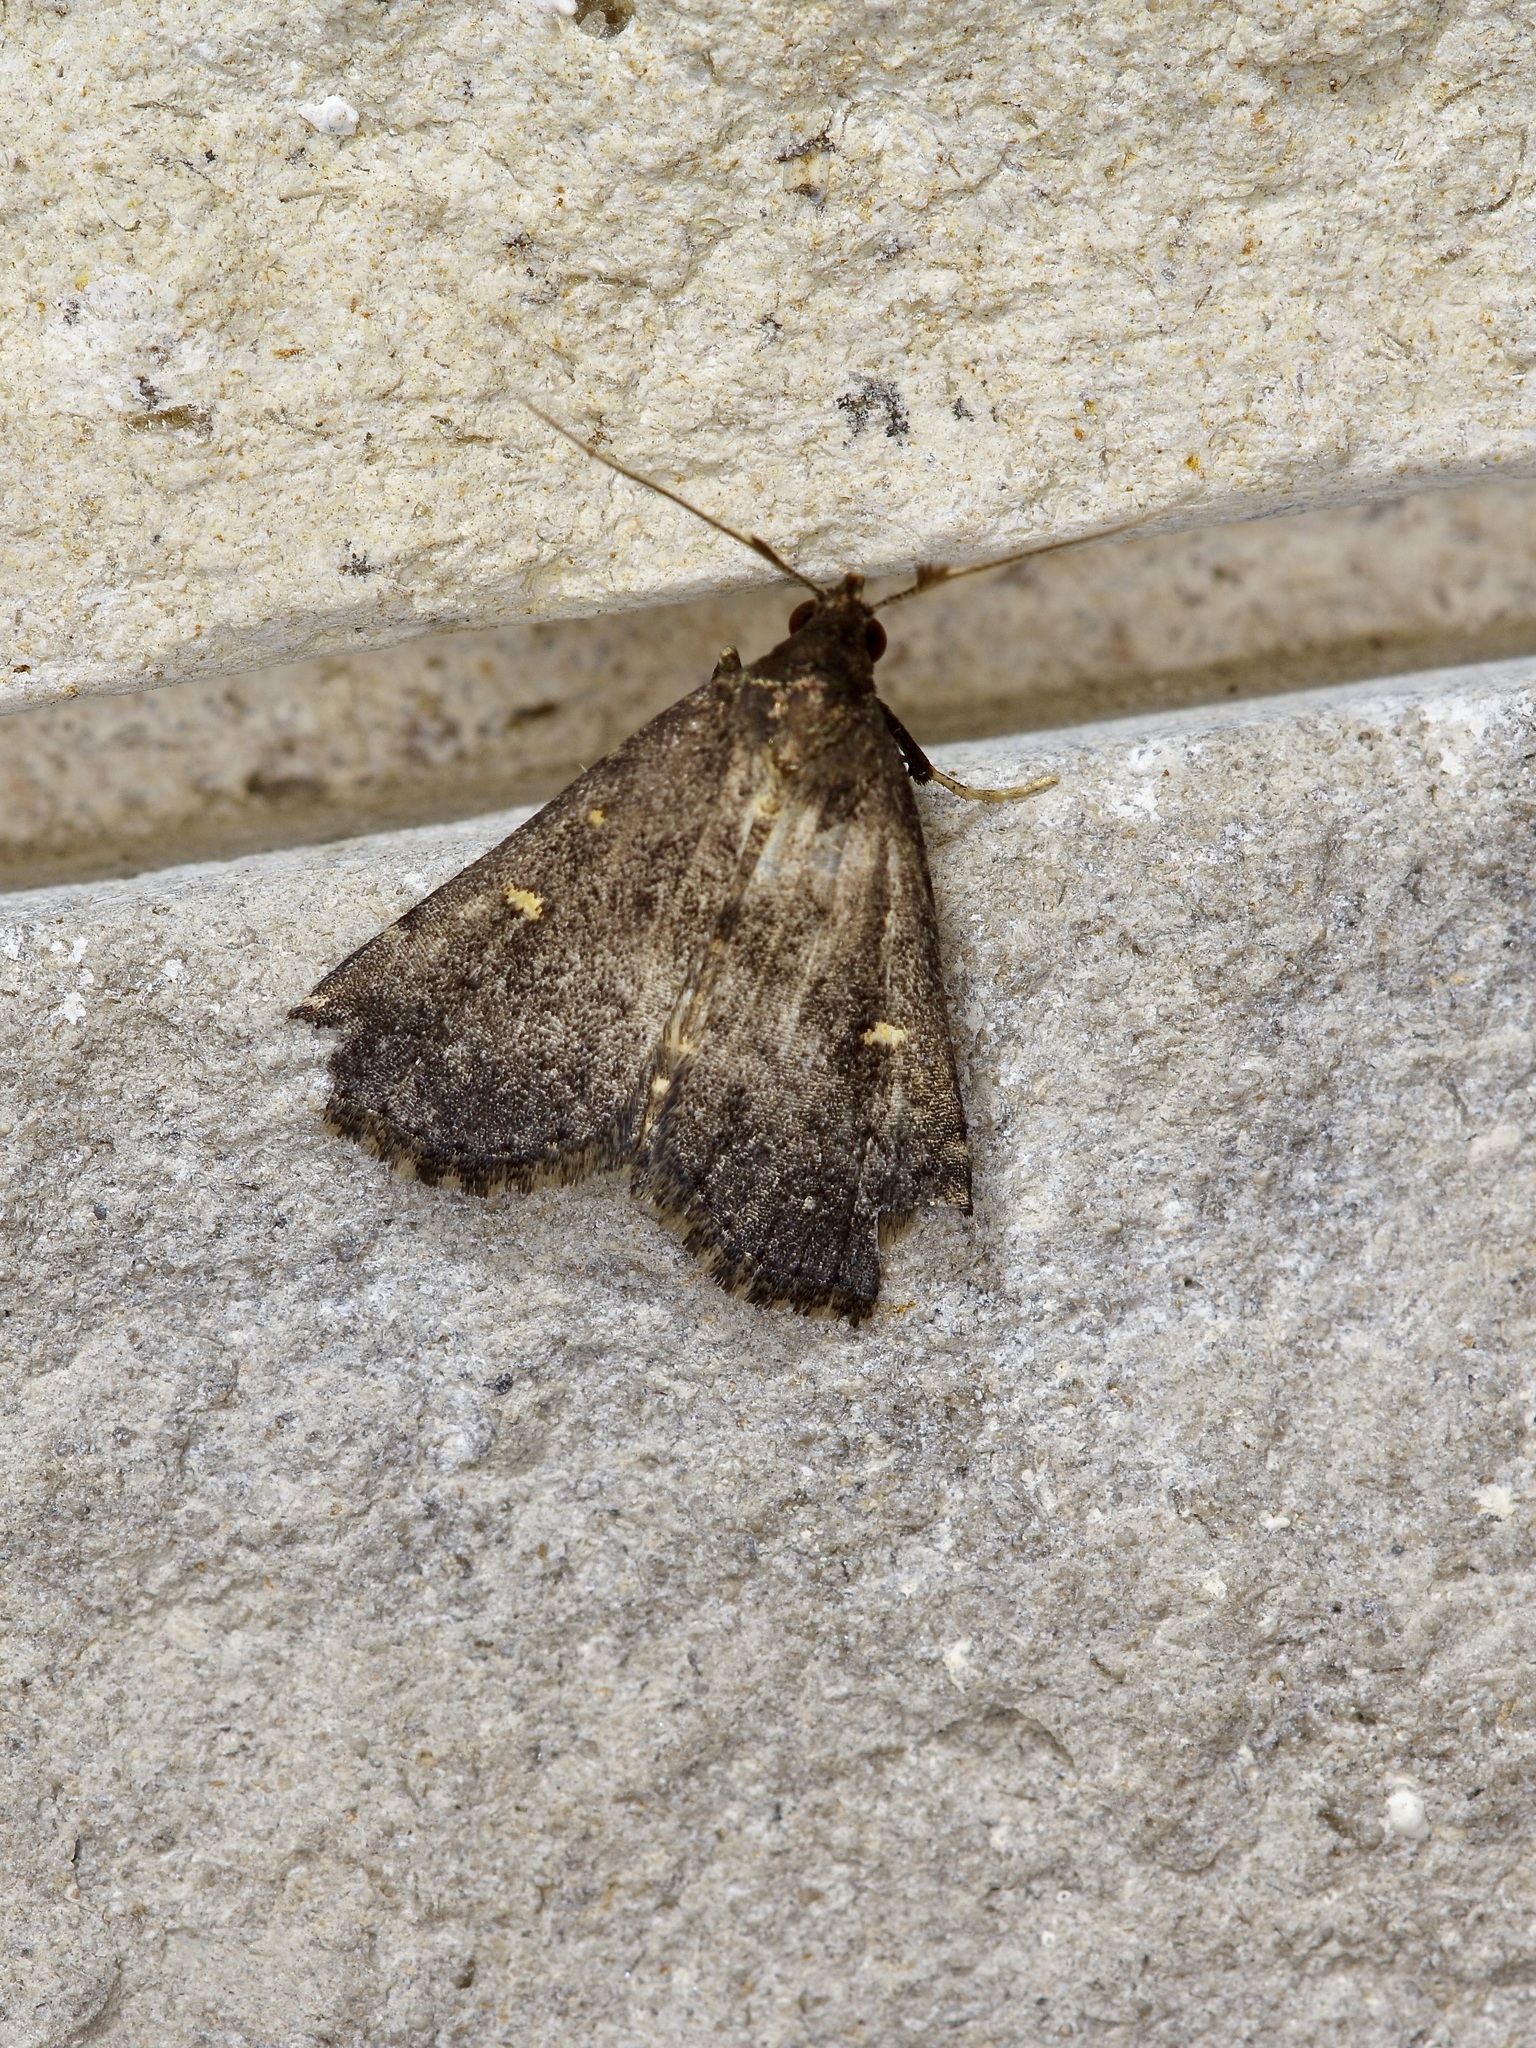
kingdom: Animalia
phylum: Arthropoda
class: Insecta
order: Lepidoptera
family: Erebidae
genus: Tetanolita
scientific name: Tetanolita mynesalis
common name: Smoky tetanolita moth
